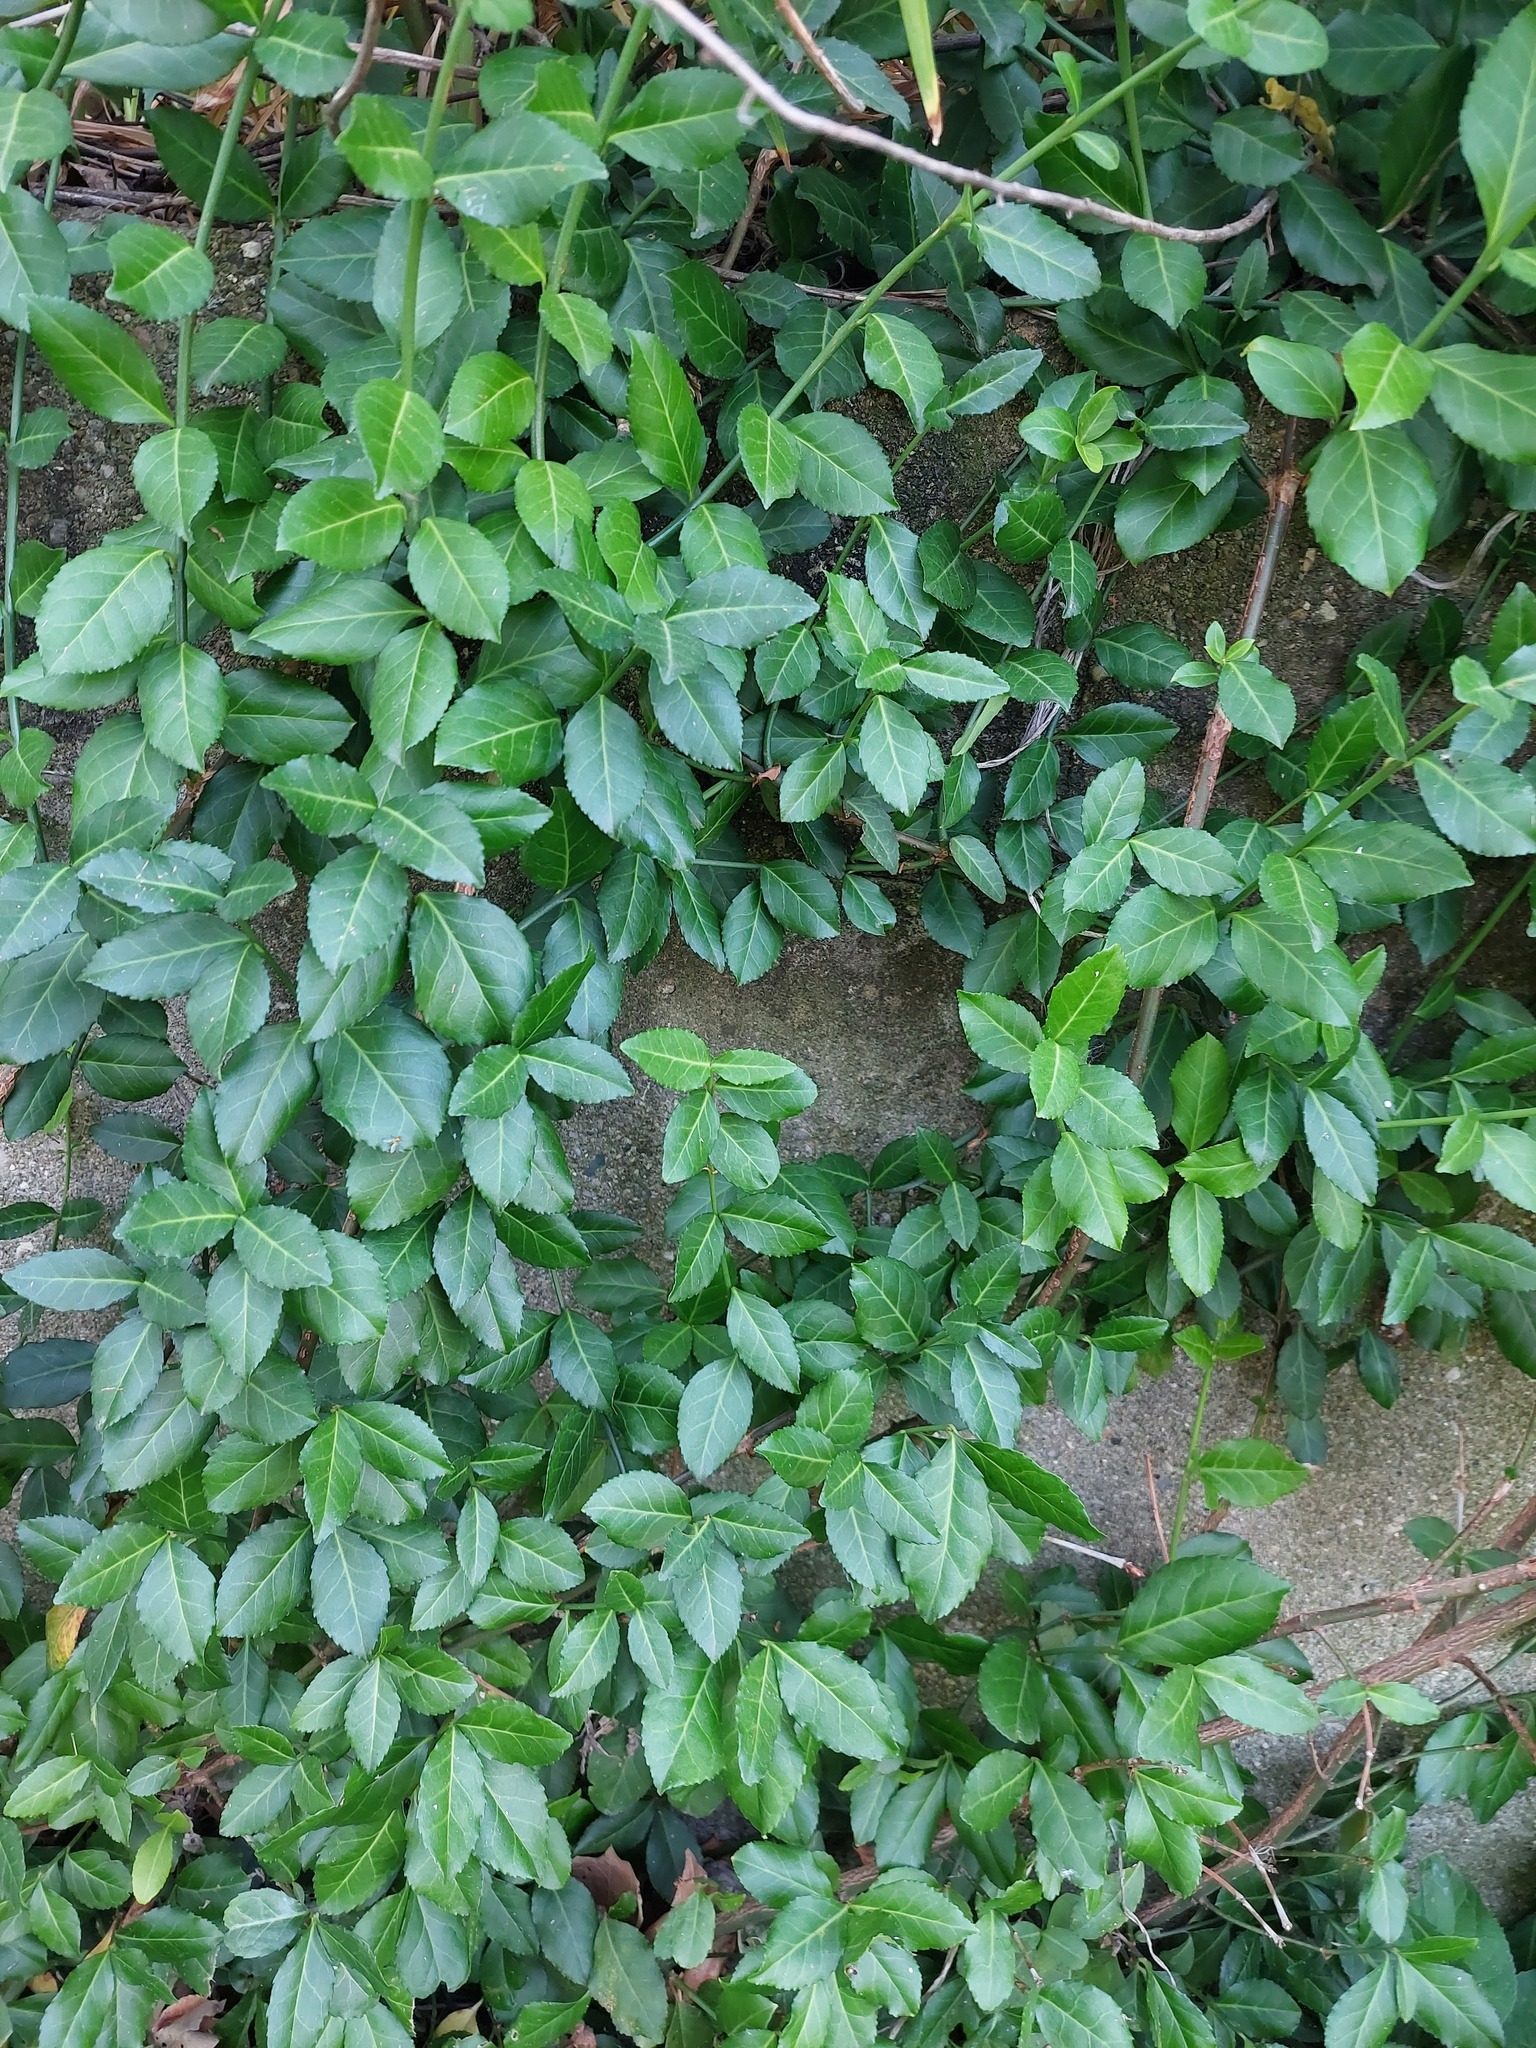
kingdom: Plantae
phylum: Tracheophyta
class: Magnoliopsida
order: Celastrales
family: Celastraceae
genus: Euonymus
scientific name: Euonymus fortunei
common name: Climbing euonymus
